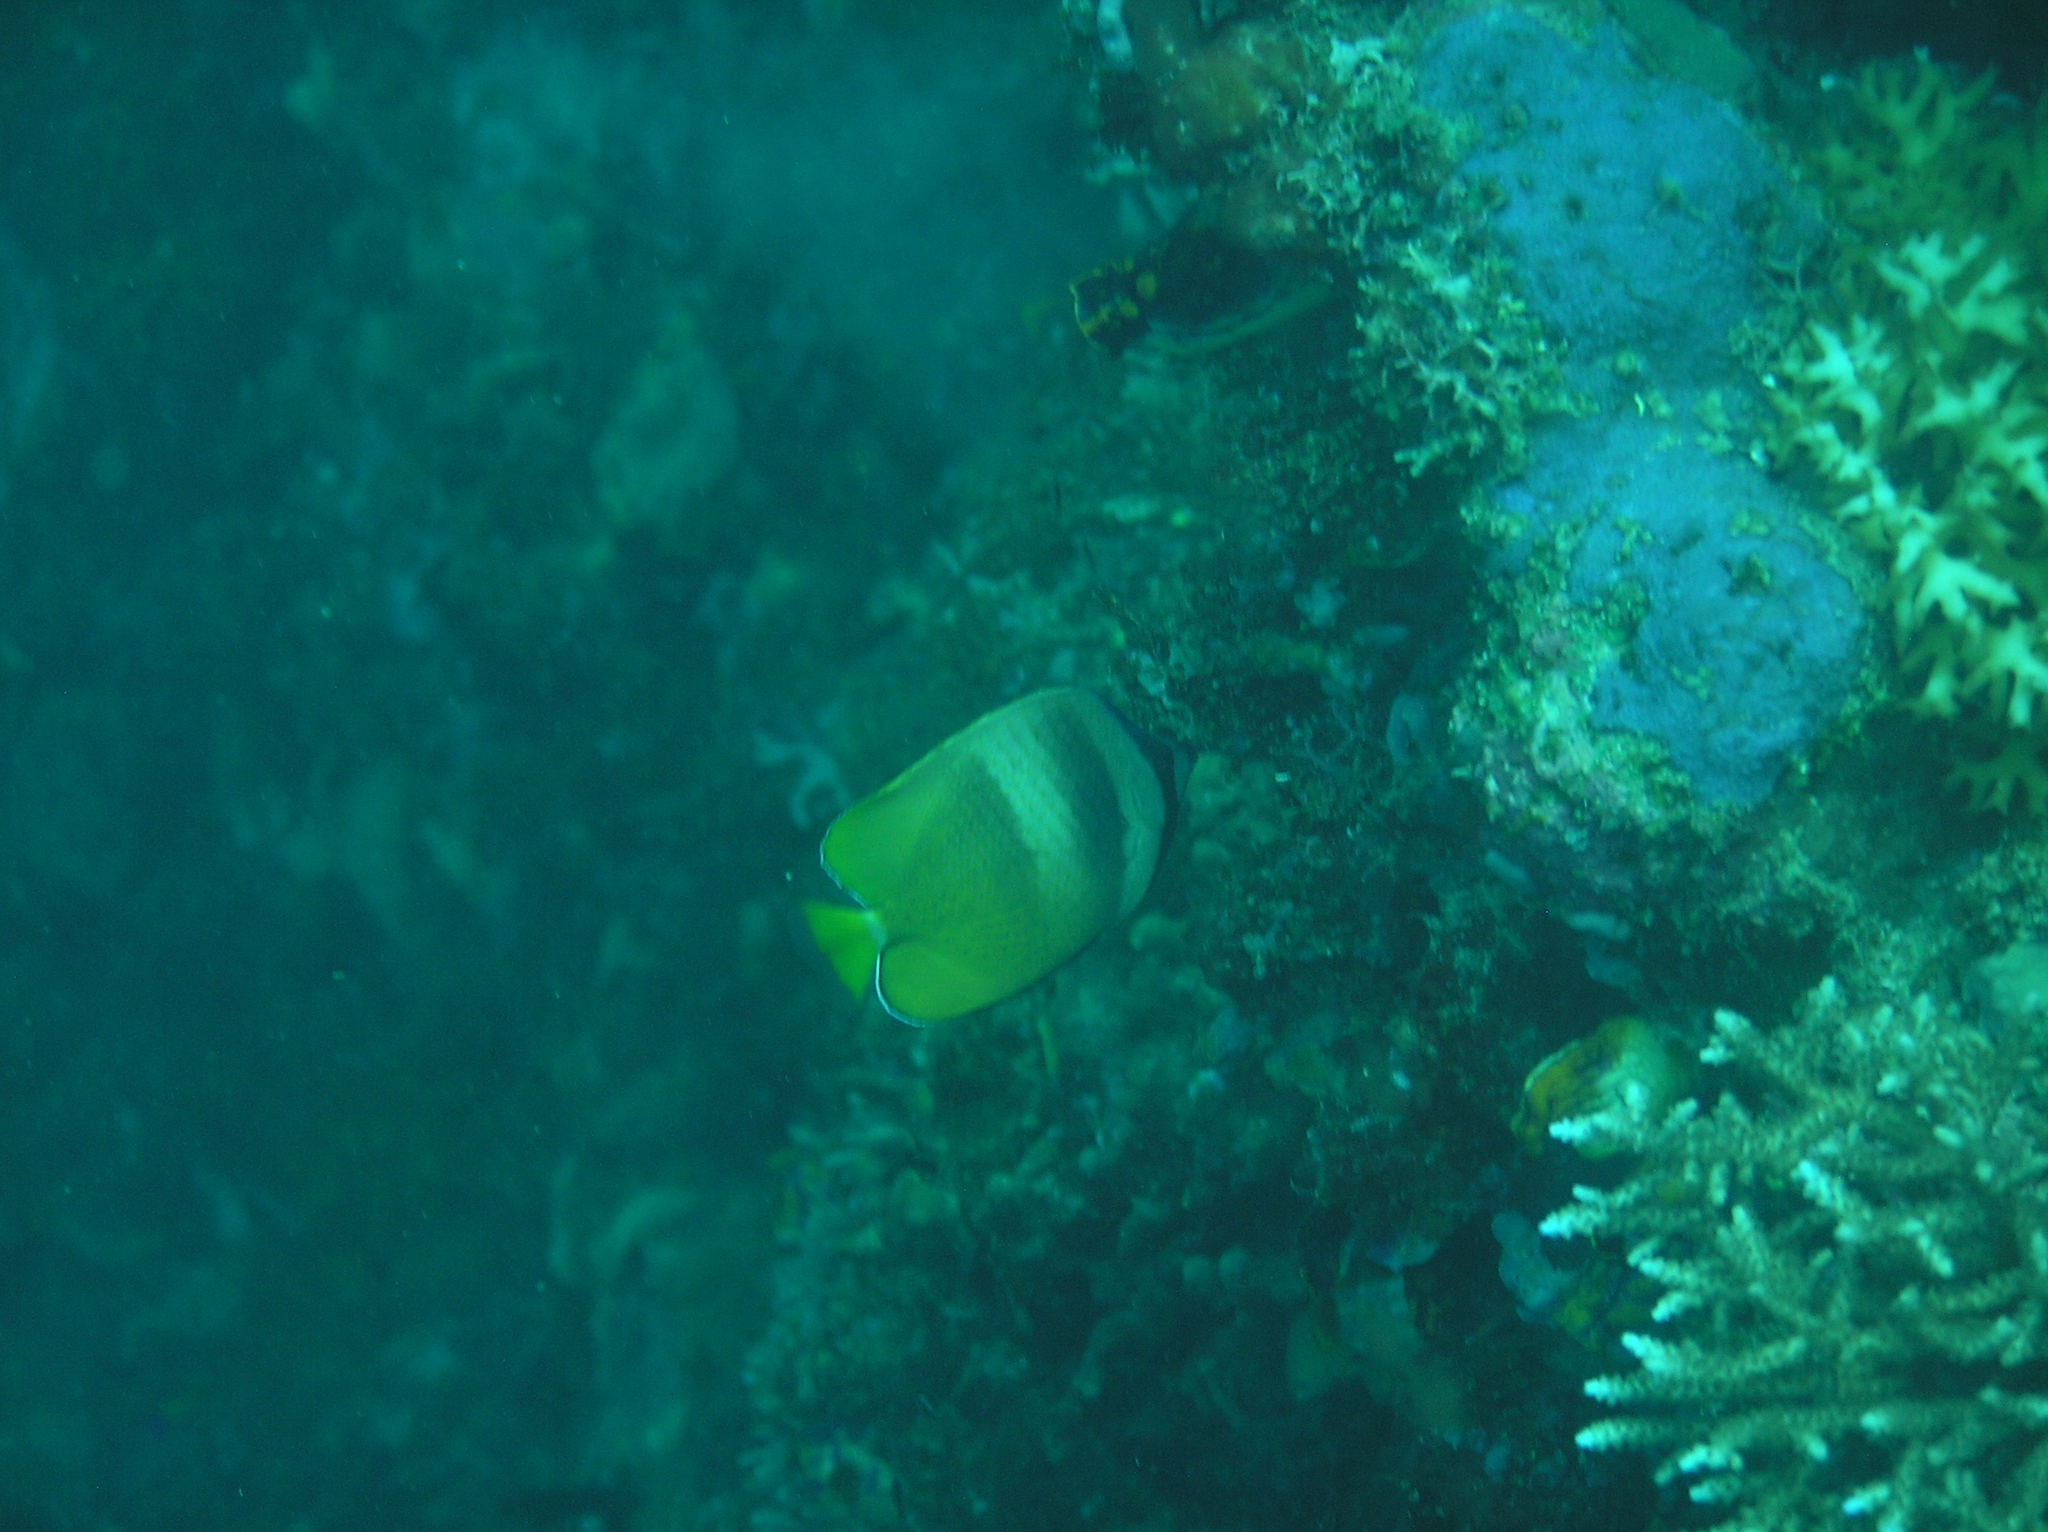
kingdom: Animalia
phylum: Chordata
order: Perciformes
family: Chaetodontidae
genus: Chaetodon
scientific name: Chaetodon kleinii
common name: Klein's butterflyfish
